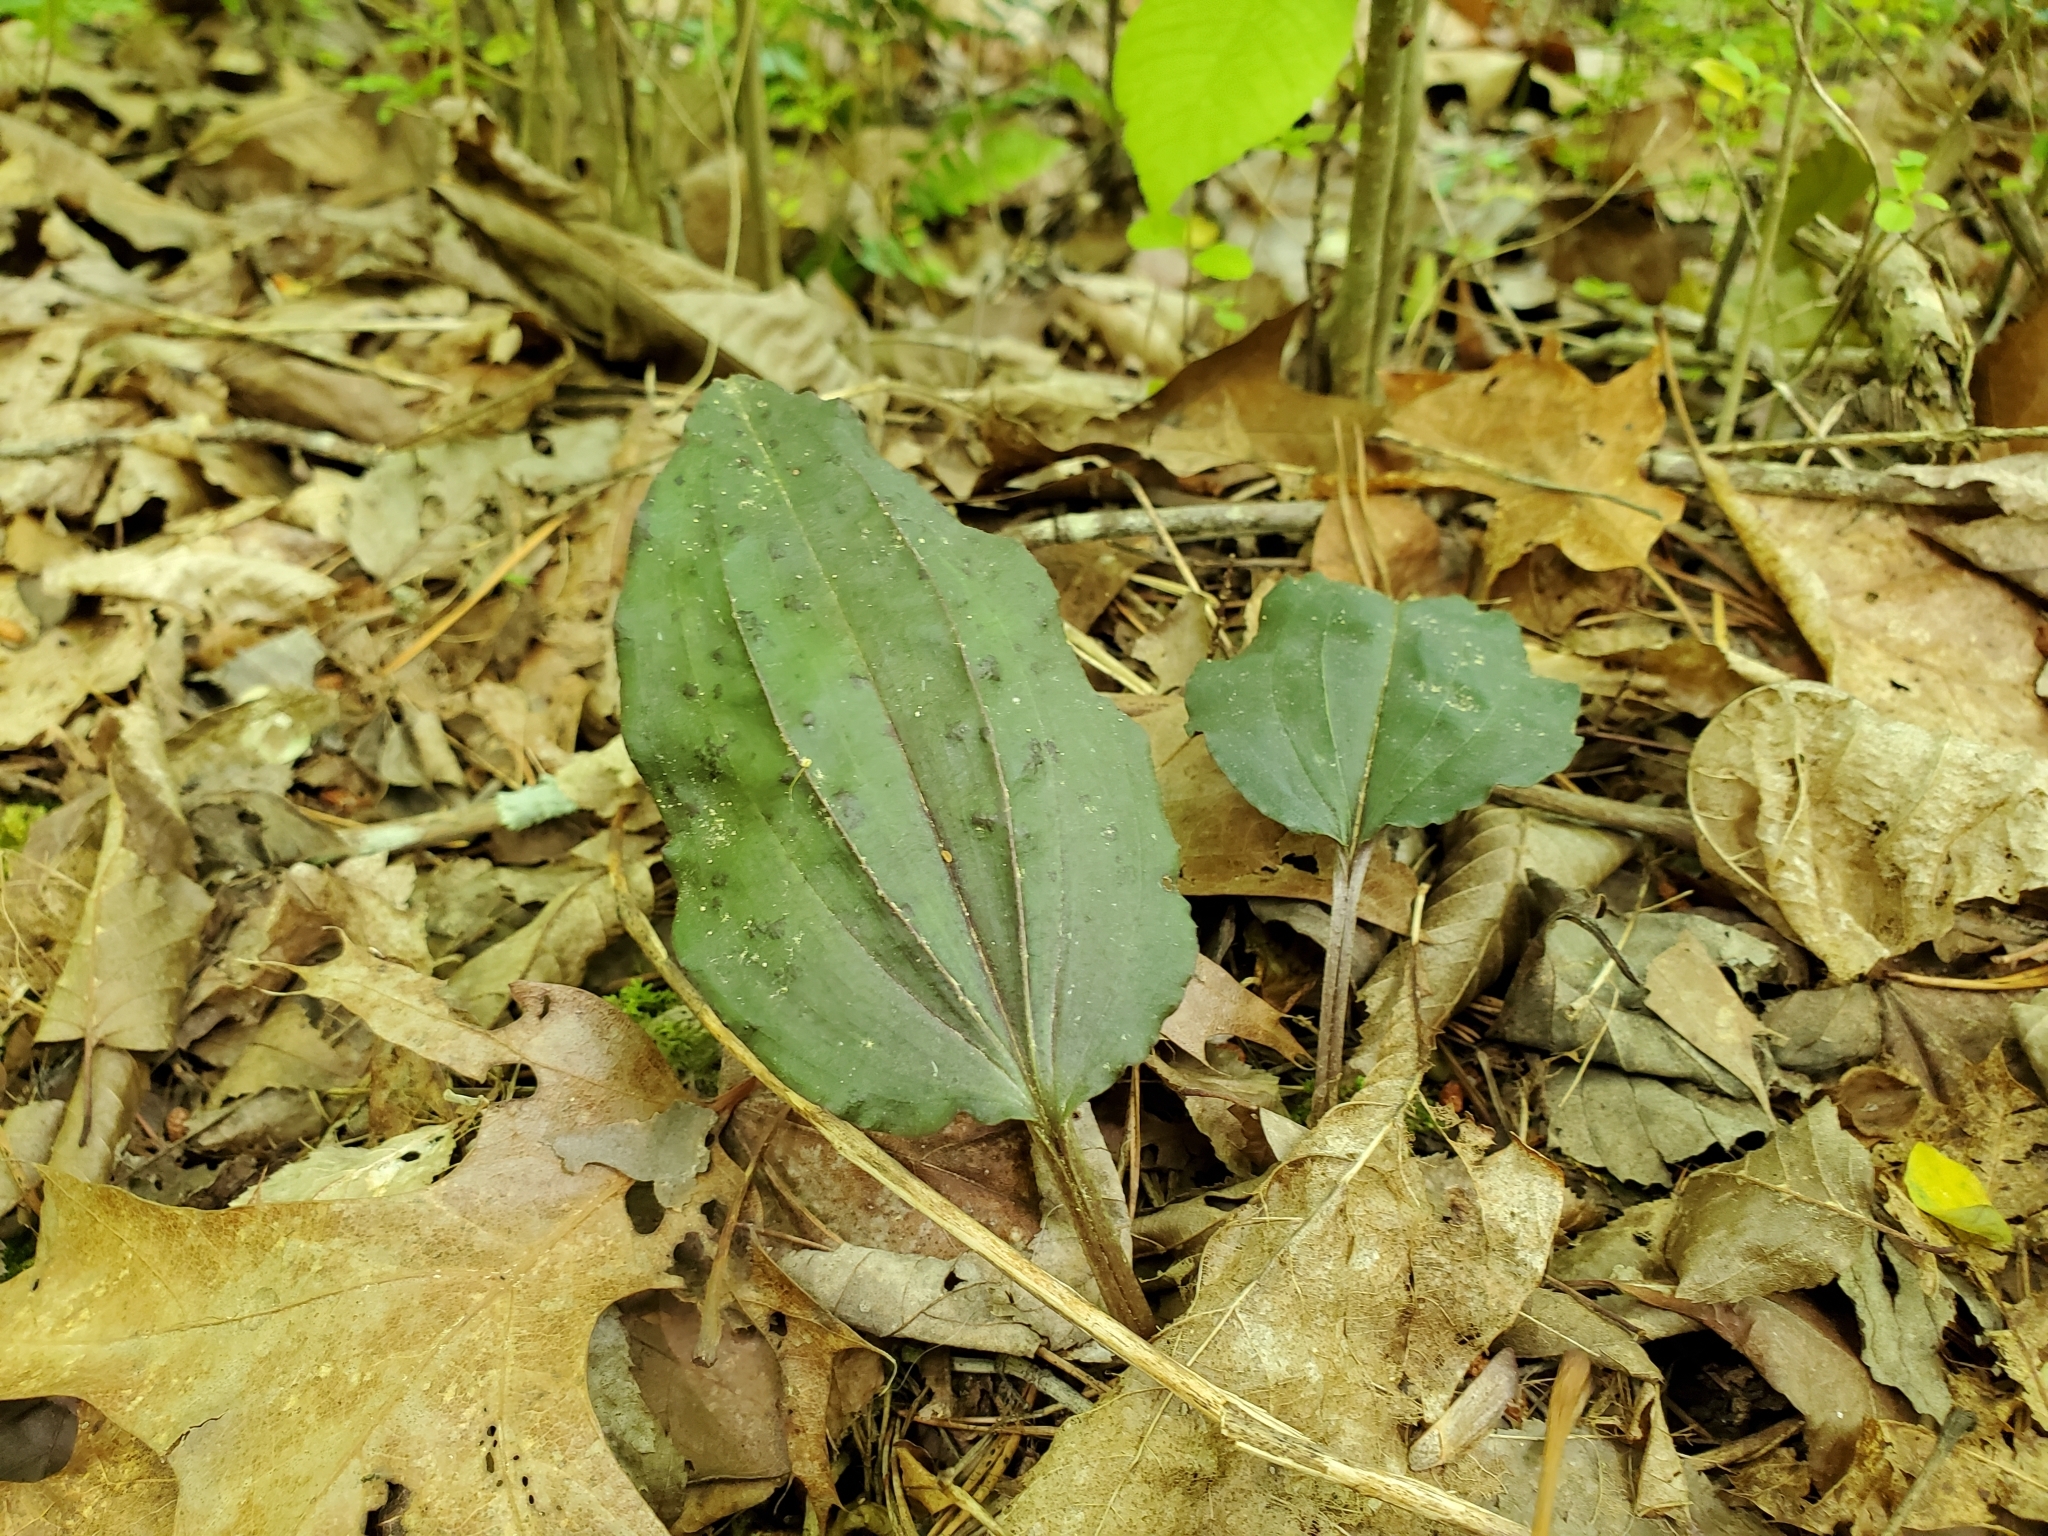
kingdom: Plantae
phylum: Tracheophyta
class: Liliopsida
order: Asparagales
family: Orchidaceae
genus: Tipularia
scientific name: Tipularia discolor
